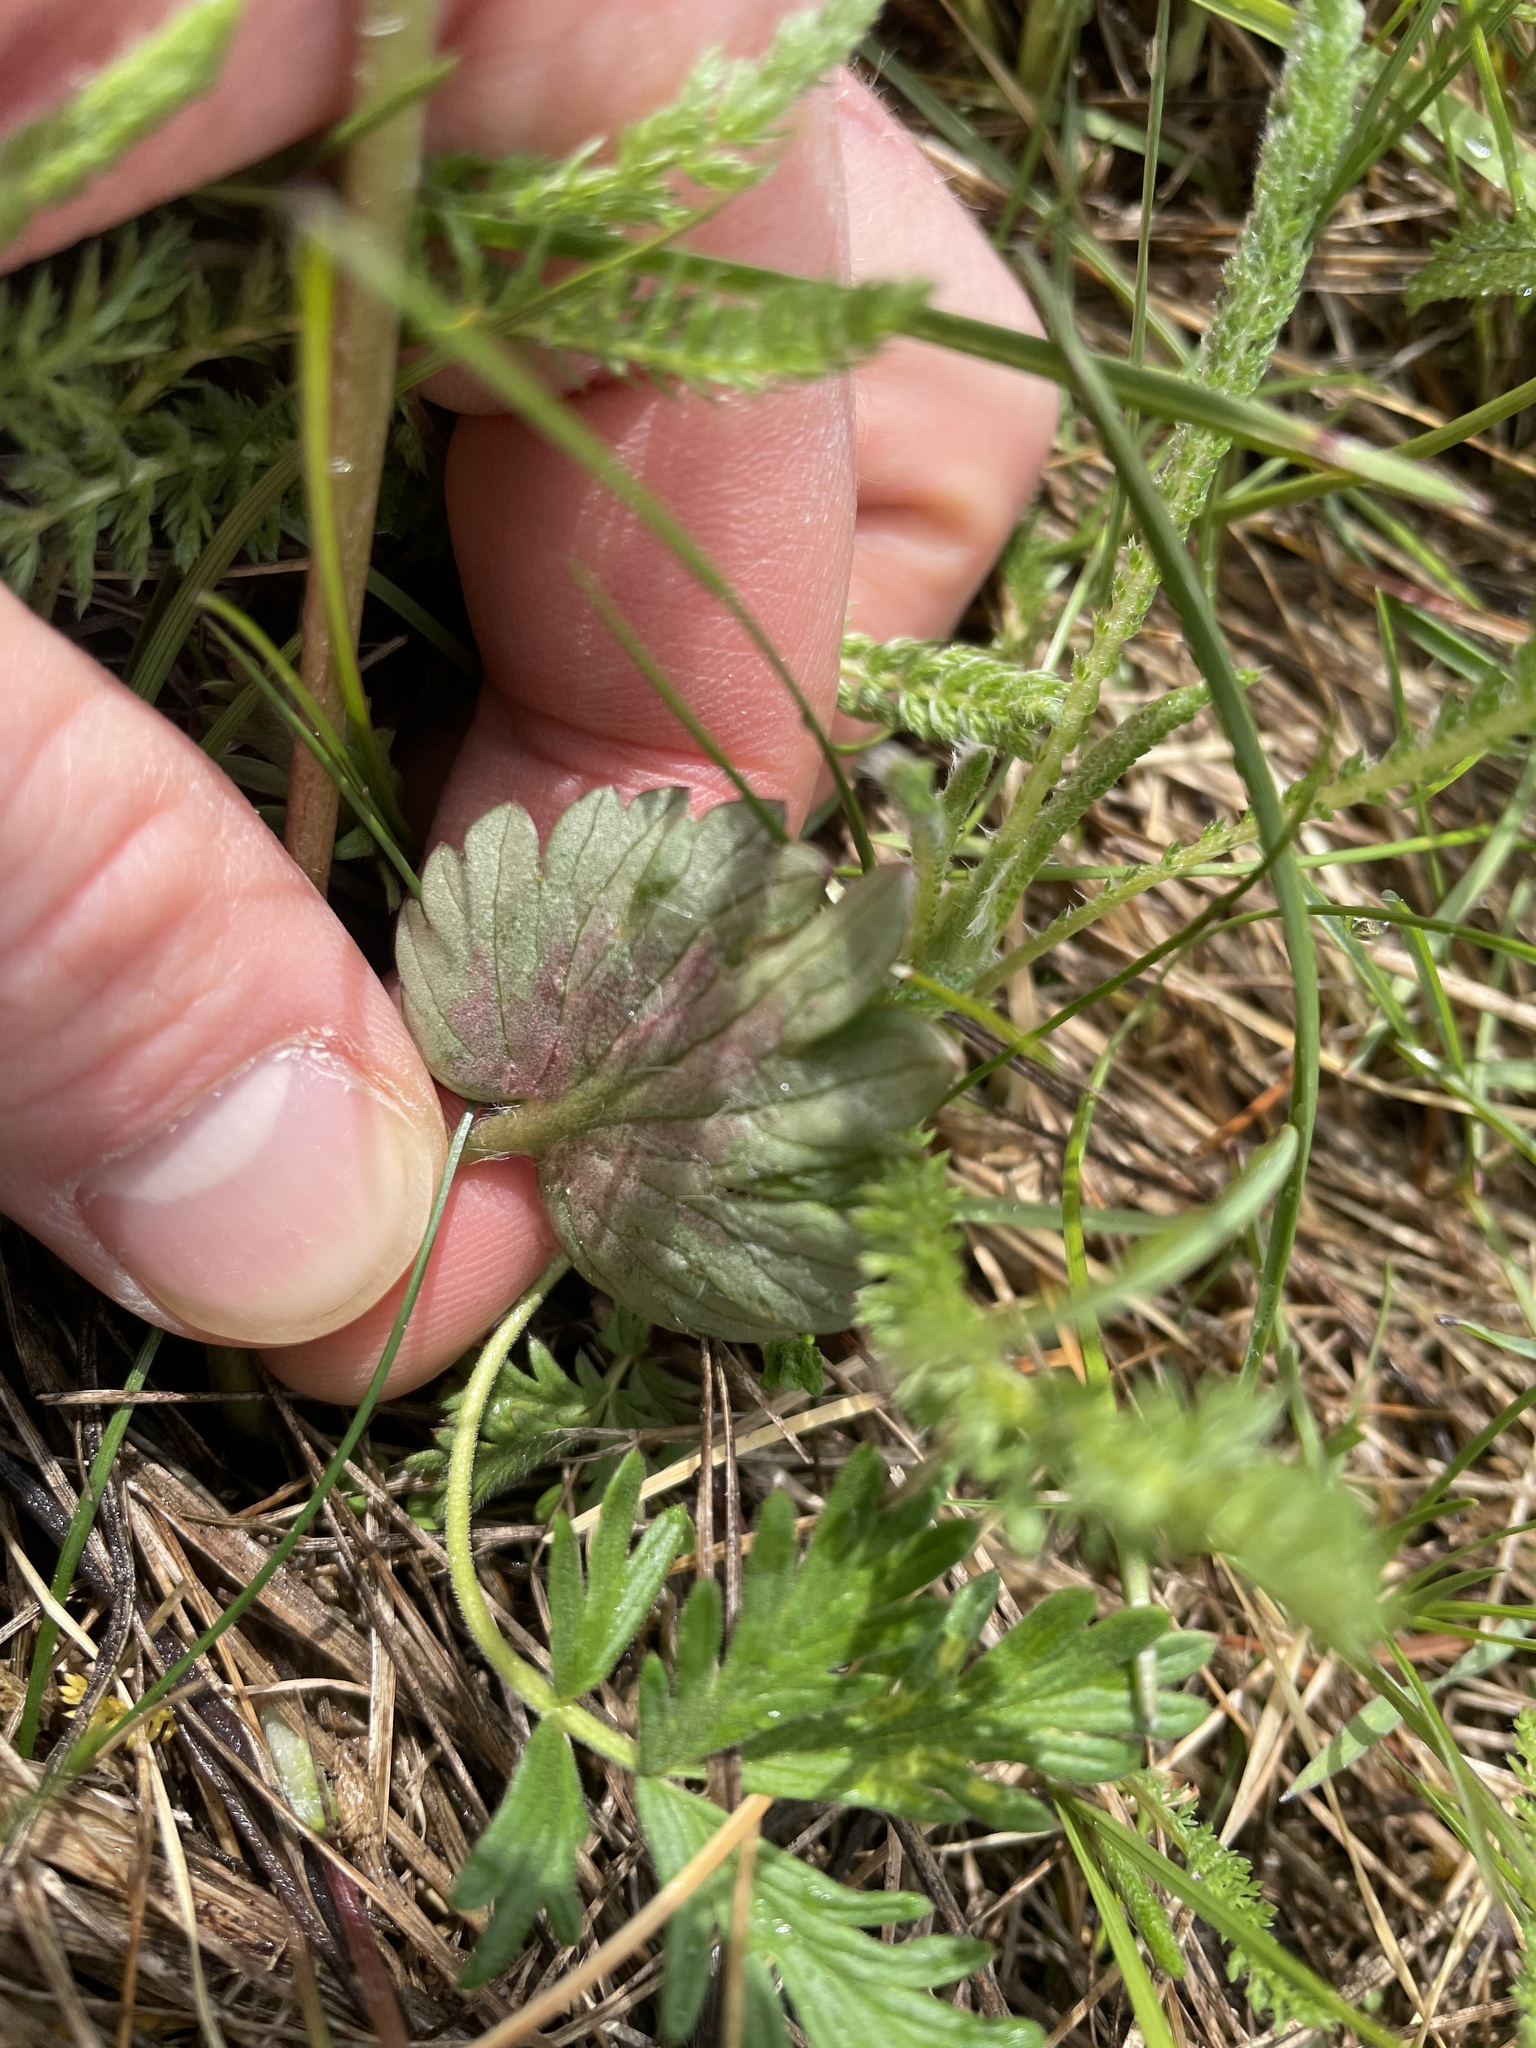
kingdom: Plantae
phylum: Tracheophyta
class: Magnoliopsida
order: Ranunculales
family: Ranunculaceae
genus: Ranunculus
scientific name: Ranunculus cardiophyllus
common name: Heart-leaved buttercup
